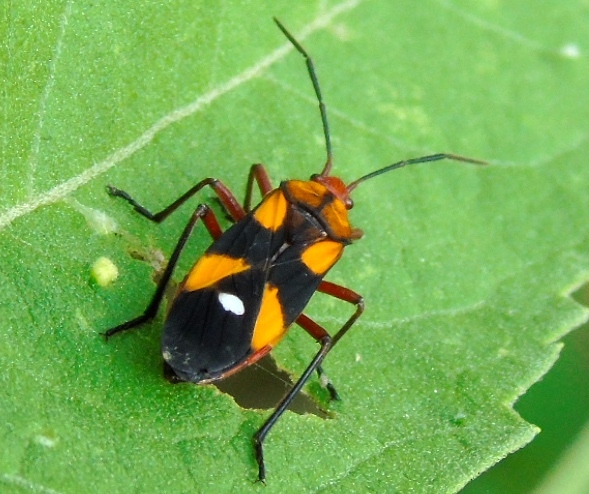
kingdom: Animalia
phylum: Arthropoda
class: Insecta
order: Hemiptera
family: Lygaeidae
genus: Oncopeltus
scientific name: Oncopeltus sexmaculatus
